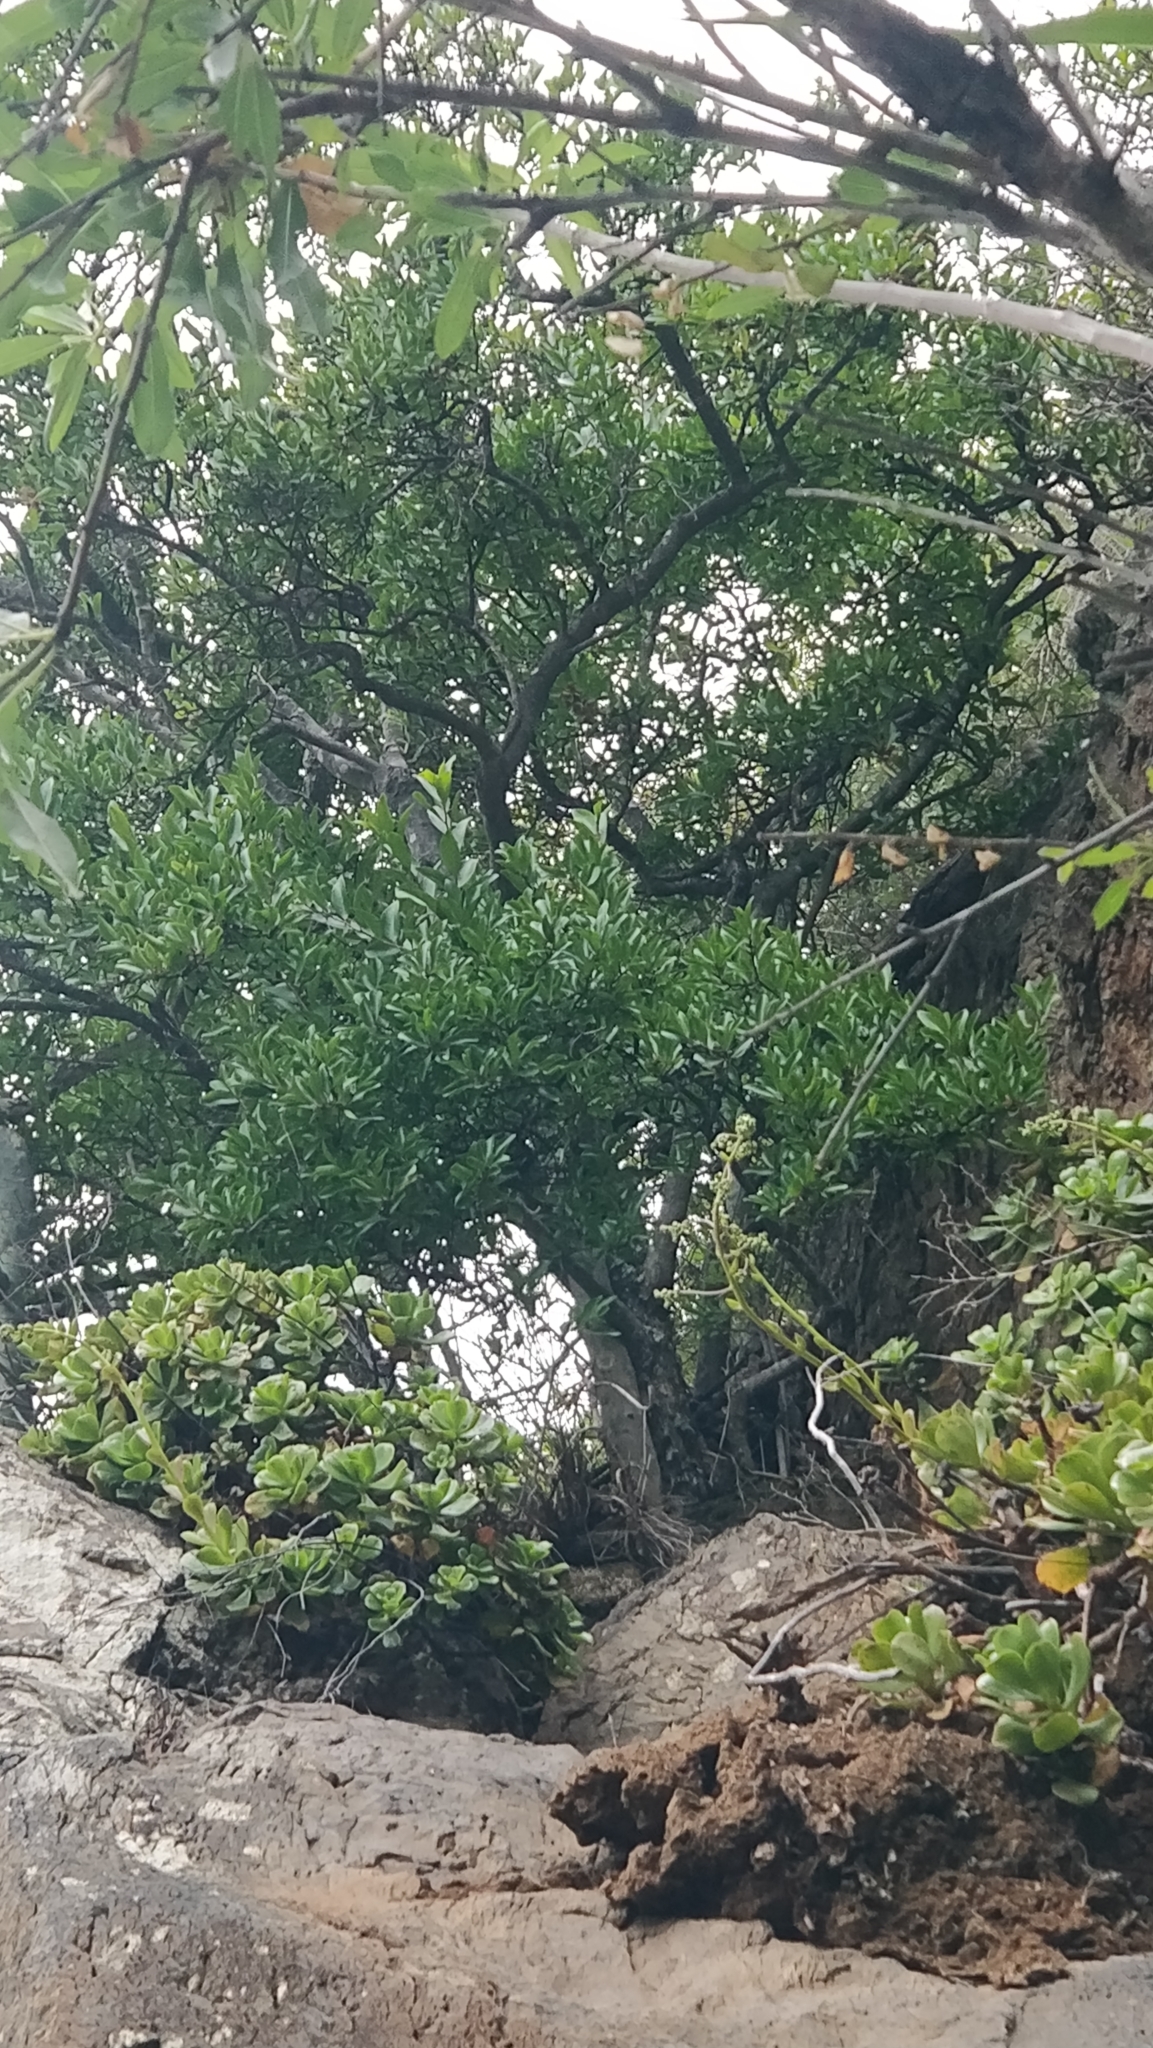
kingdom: Plantae
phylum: Tracheophyta
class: Magnoliopsida
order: Celastrales
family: Celastraceae
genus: Gymnosporia
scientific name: Gymnosporia dryandri
